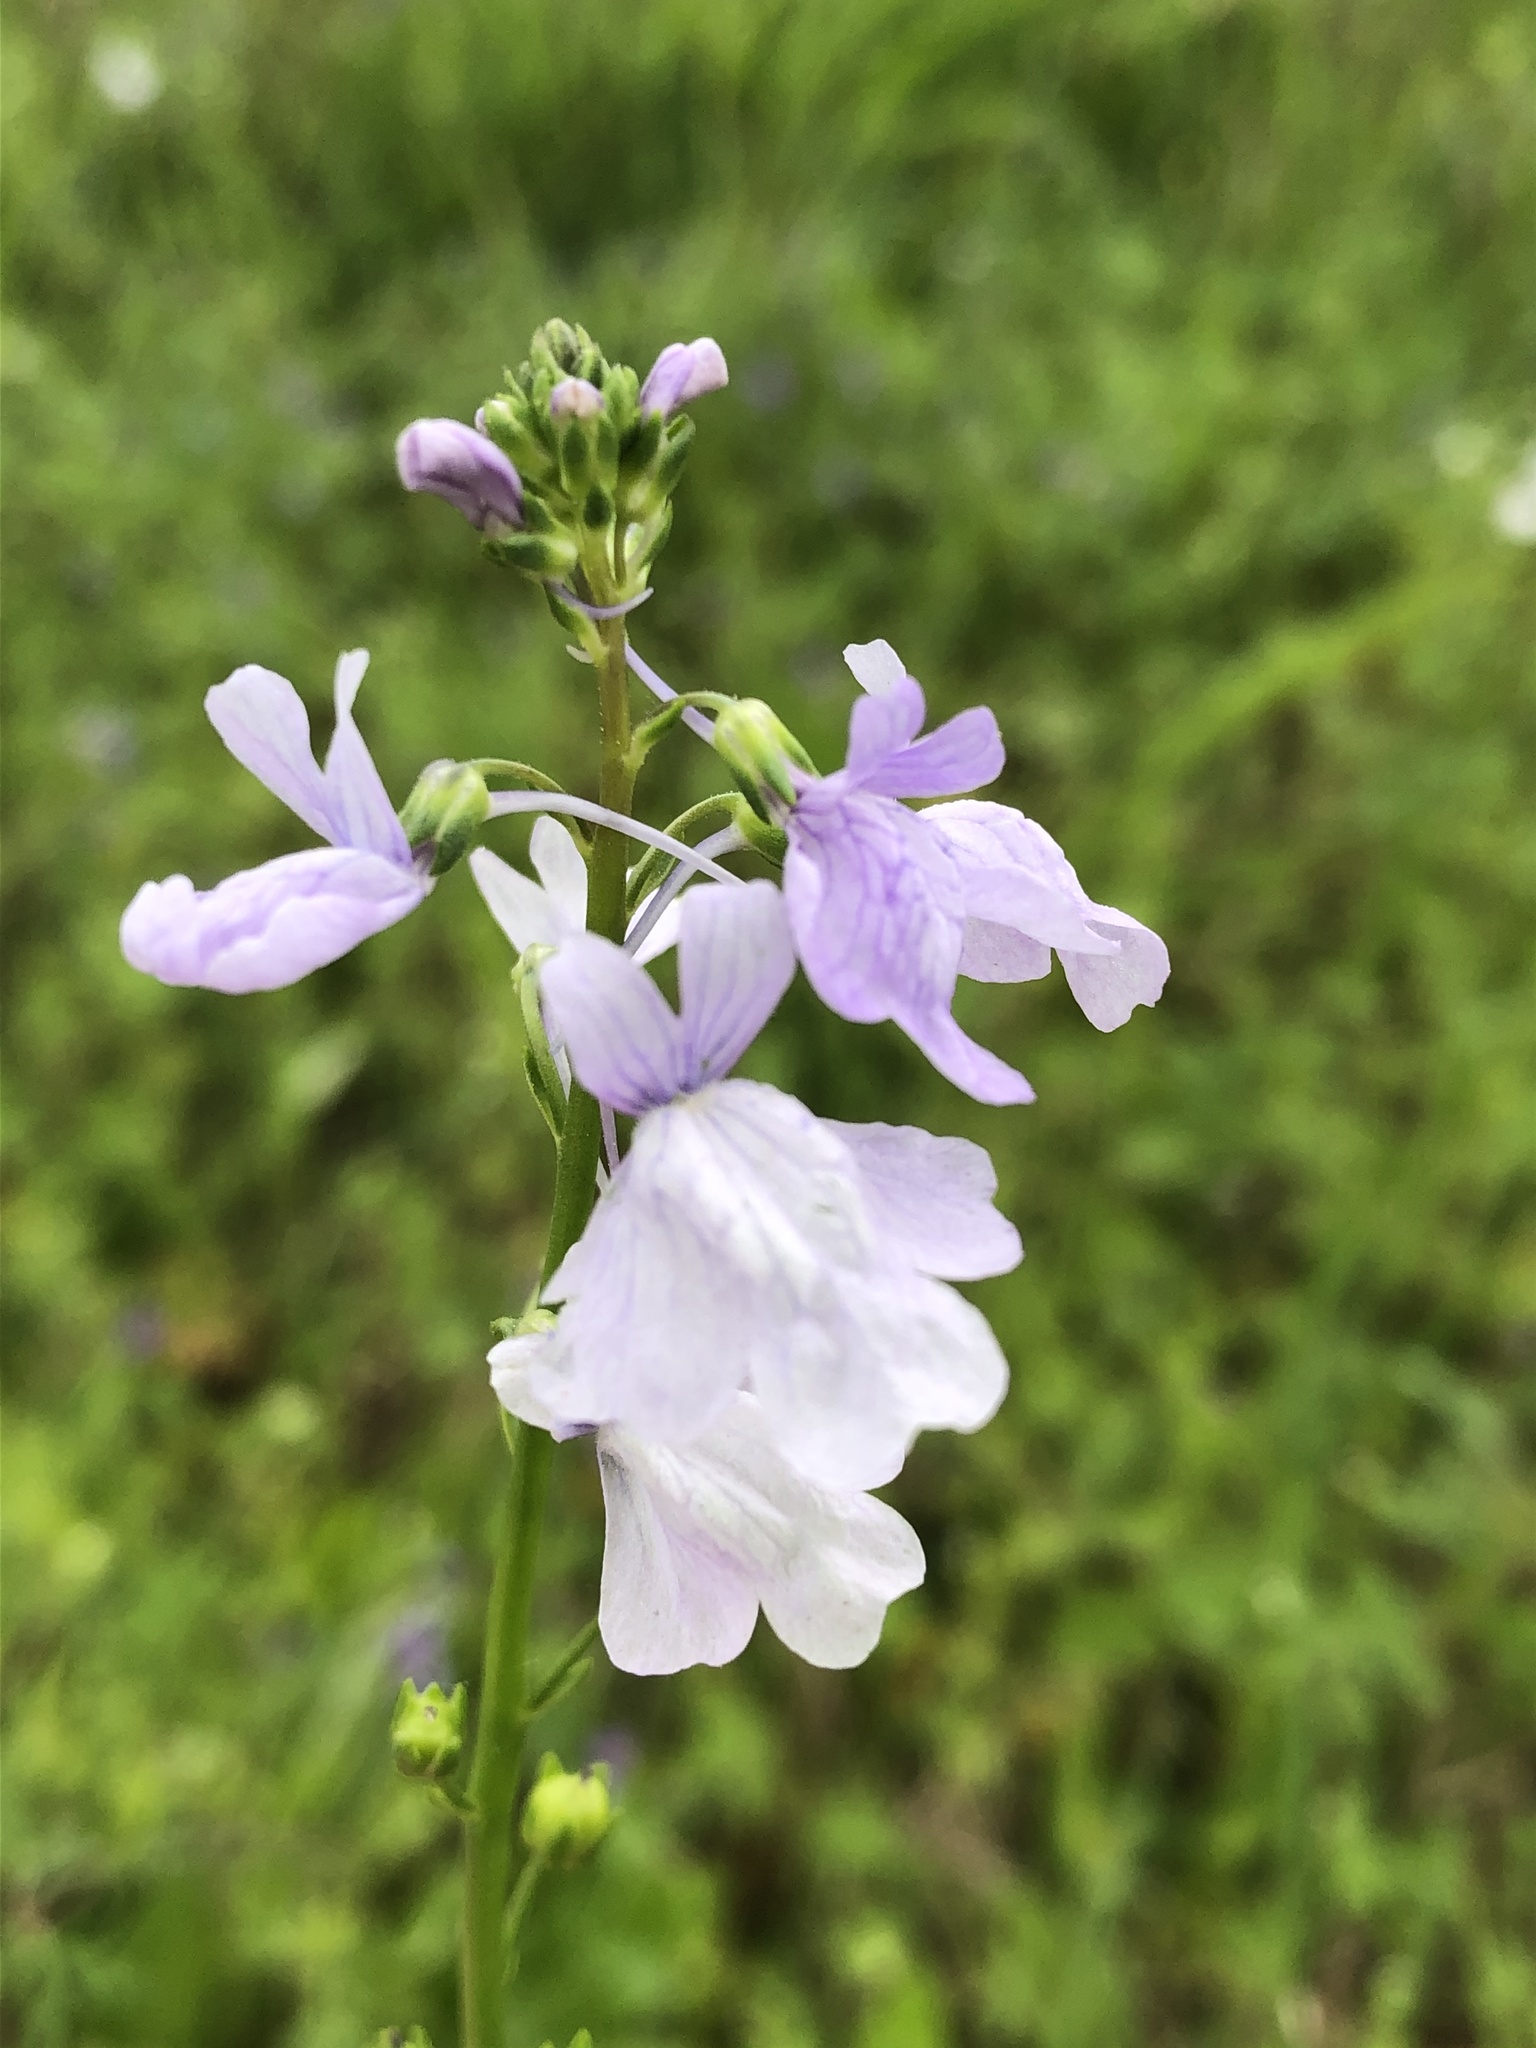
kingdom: Plantae
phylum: Tracheophyta
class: Magnoliopsida
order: Lamiales
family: Plantaginaceae
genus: Nuttallanthus
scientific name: Nuttallanthus texanus
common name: Texas toadflax
